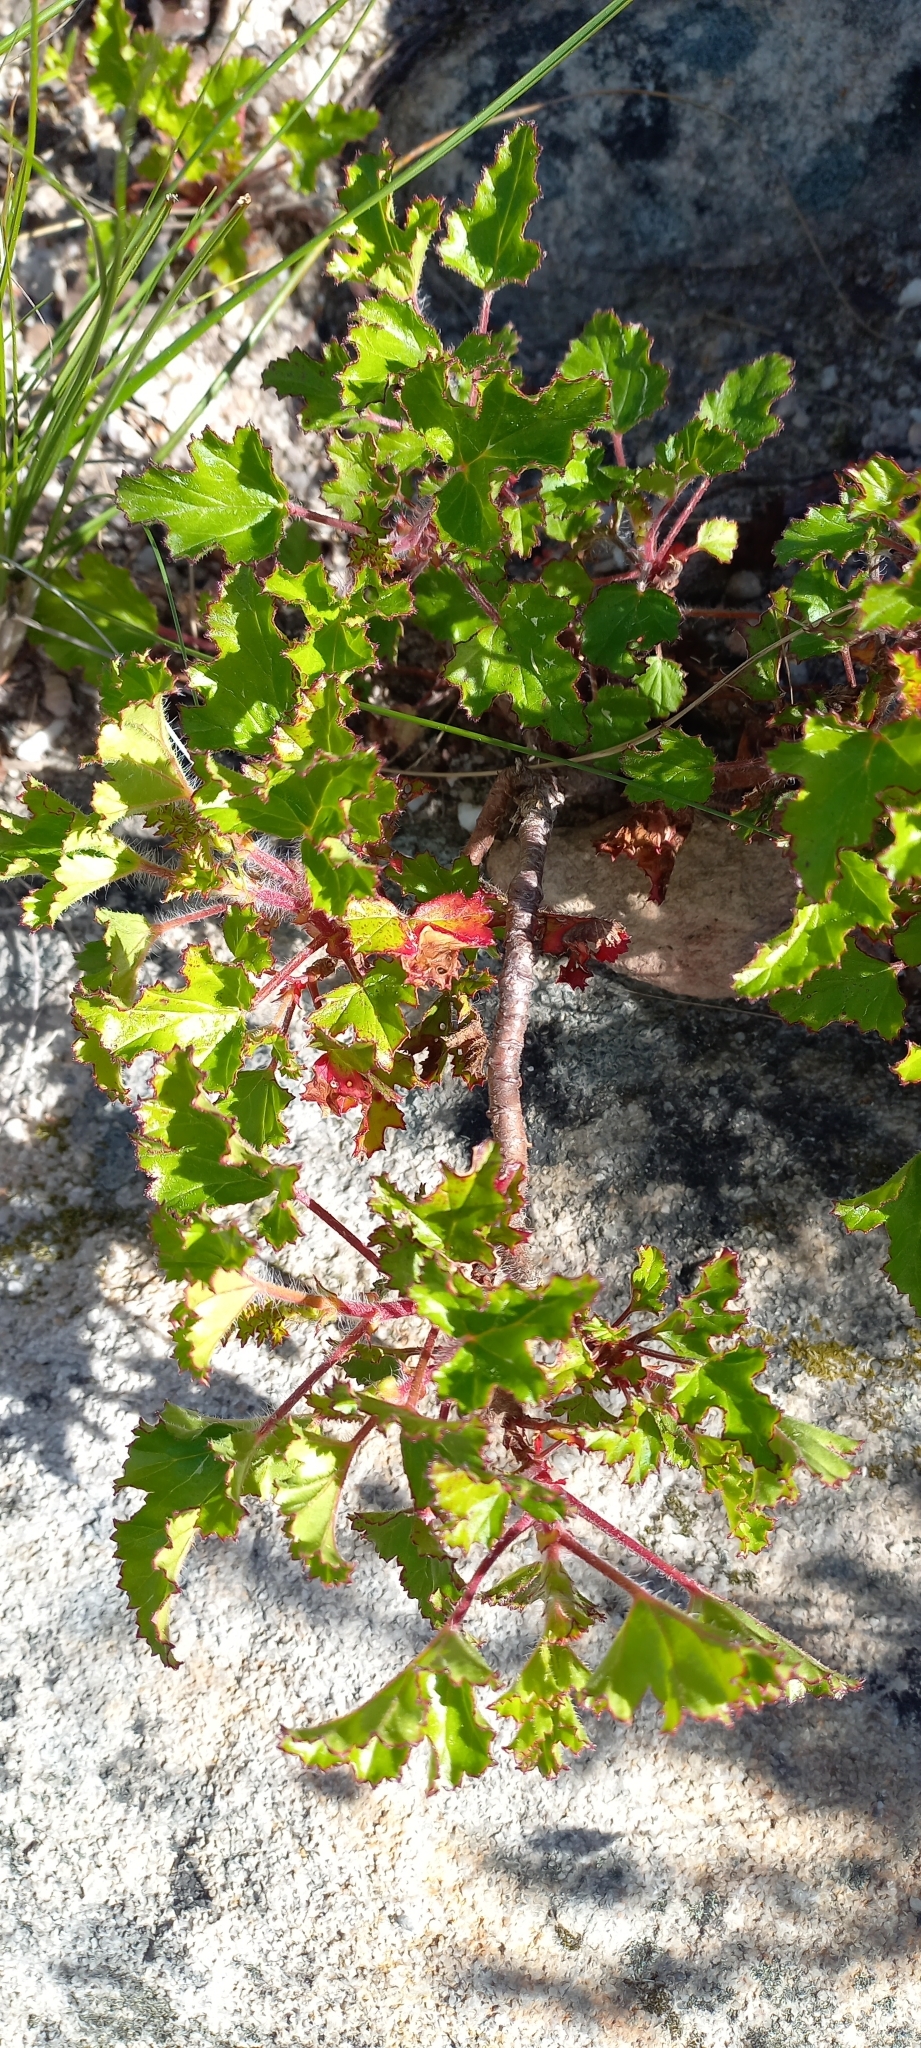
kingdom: Plantae
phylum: Tracheophyta
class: Magnoliopsida
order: Geraniales
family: Geraniaceae
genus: Pelargonium
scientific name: Pelargonium scabroide
